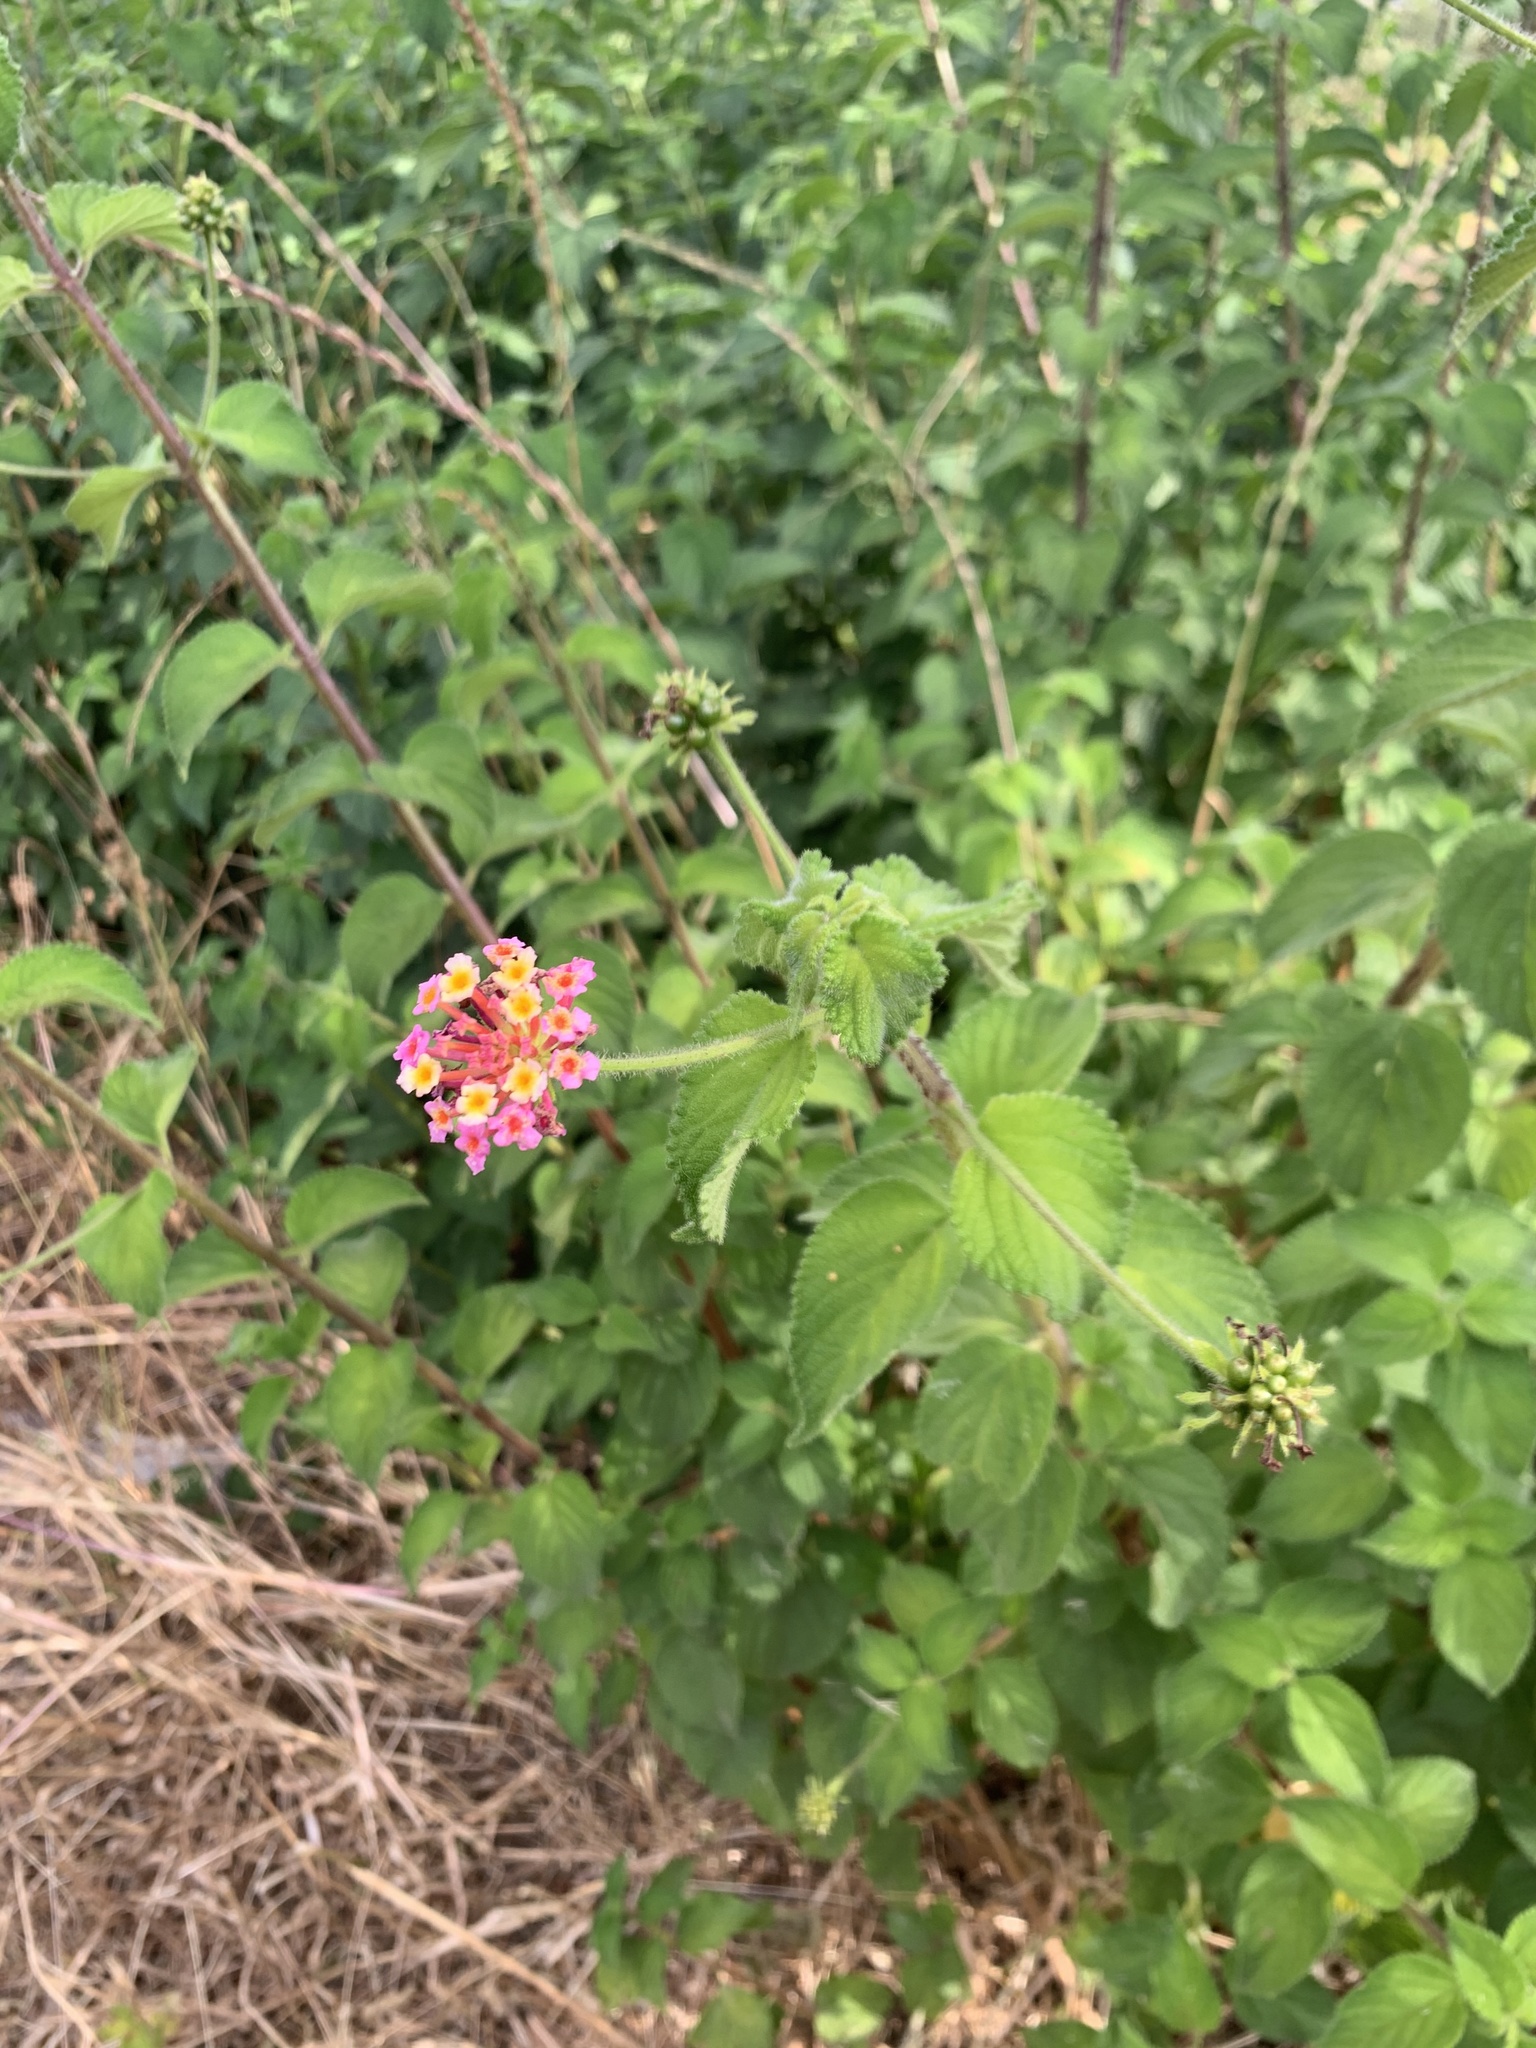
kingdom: Plantae
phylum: Tracheophyta
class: Magnoliopsida
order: Lamiales
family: Verbenaceae
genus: Lantana
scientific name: Lantana camara
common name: Lantana
